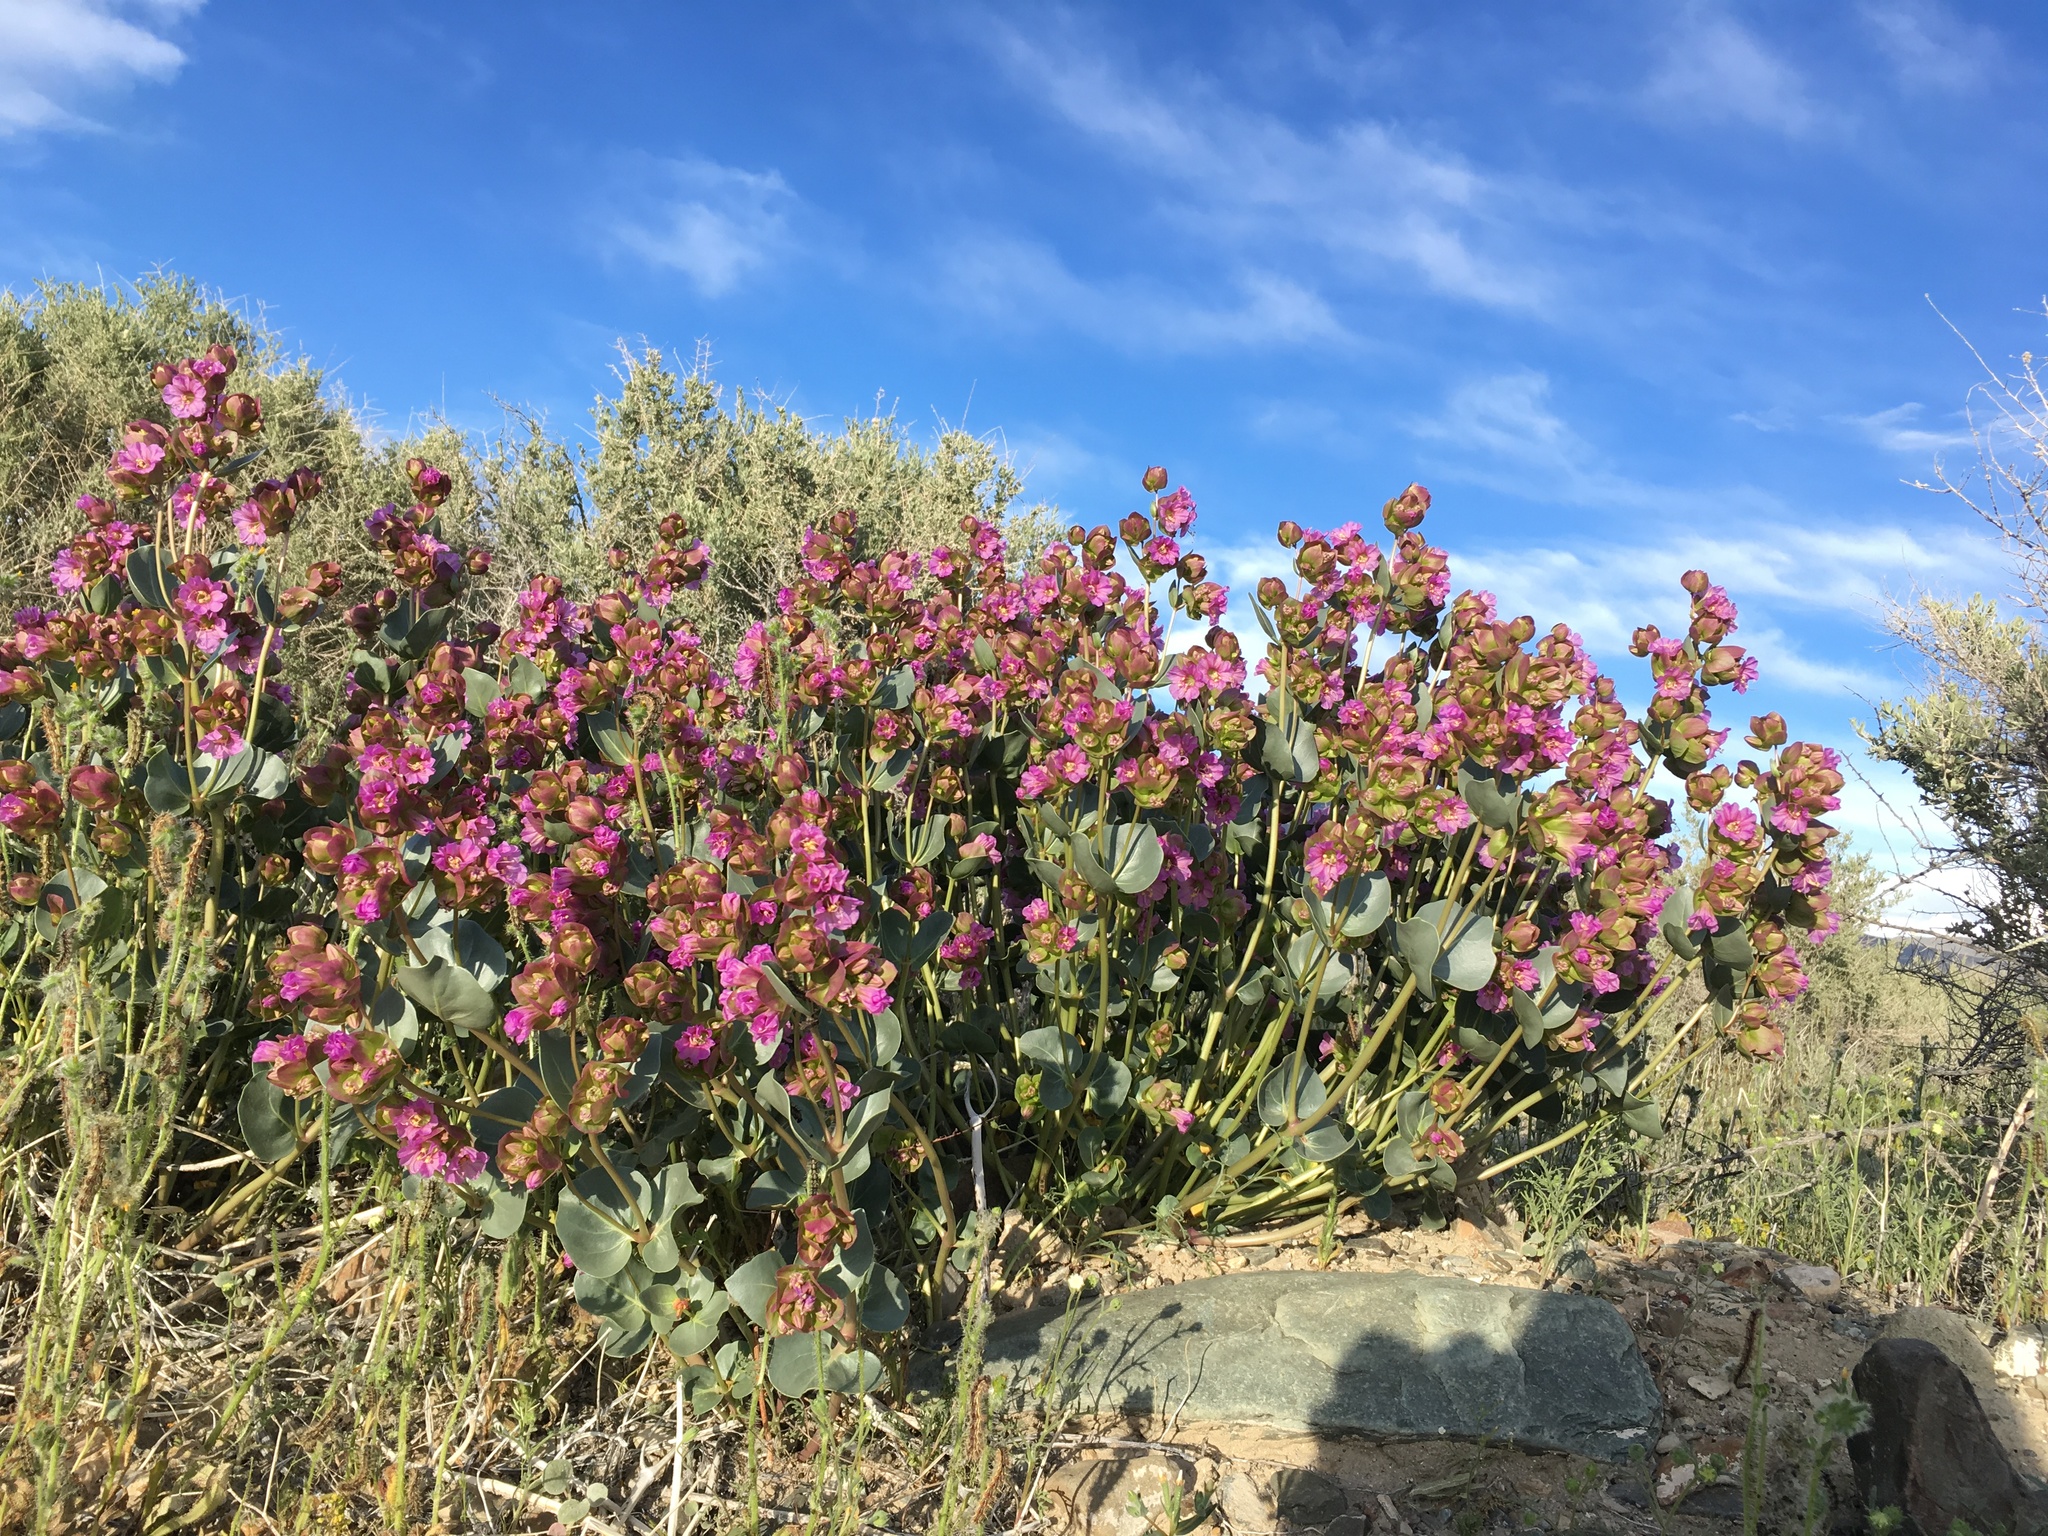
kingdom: Plantae
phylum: Tracheophyta
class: Magnoliopsida
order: Caryophyllales
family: Nyctaginaceae
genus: Mirabilis
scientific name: Mirabilis alipes
